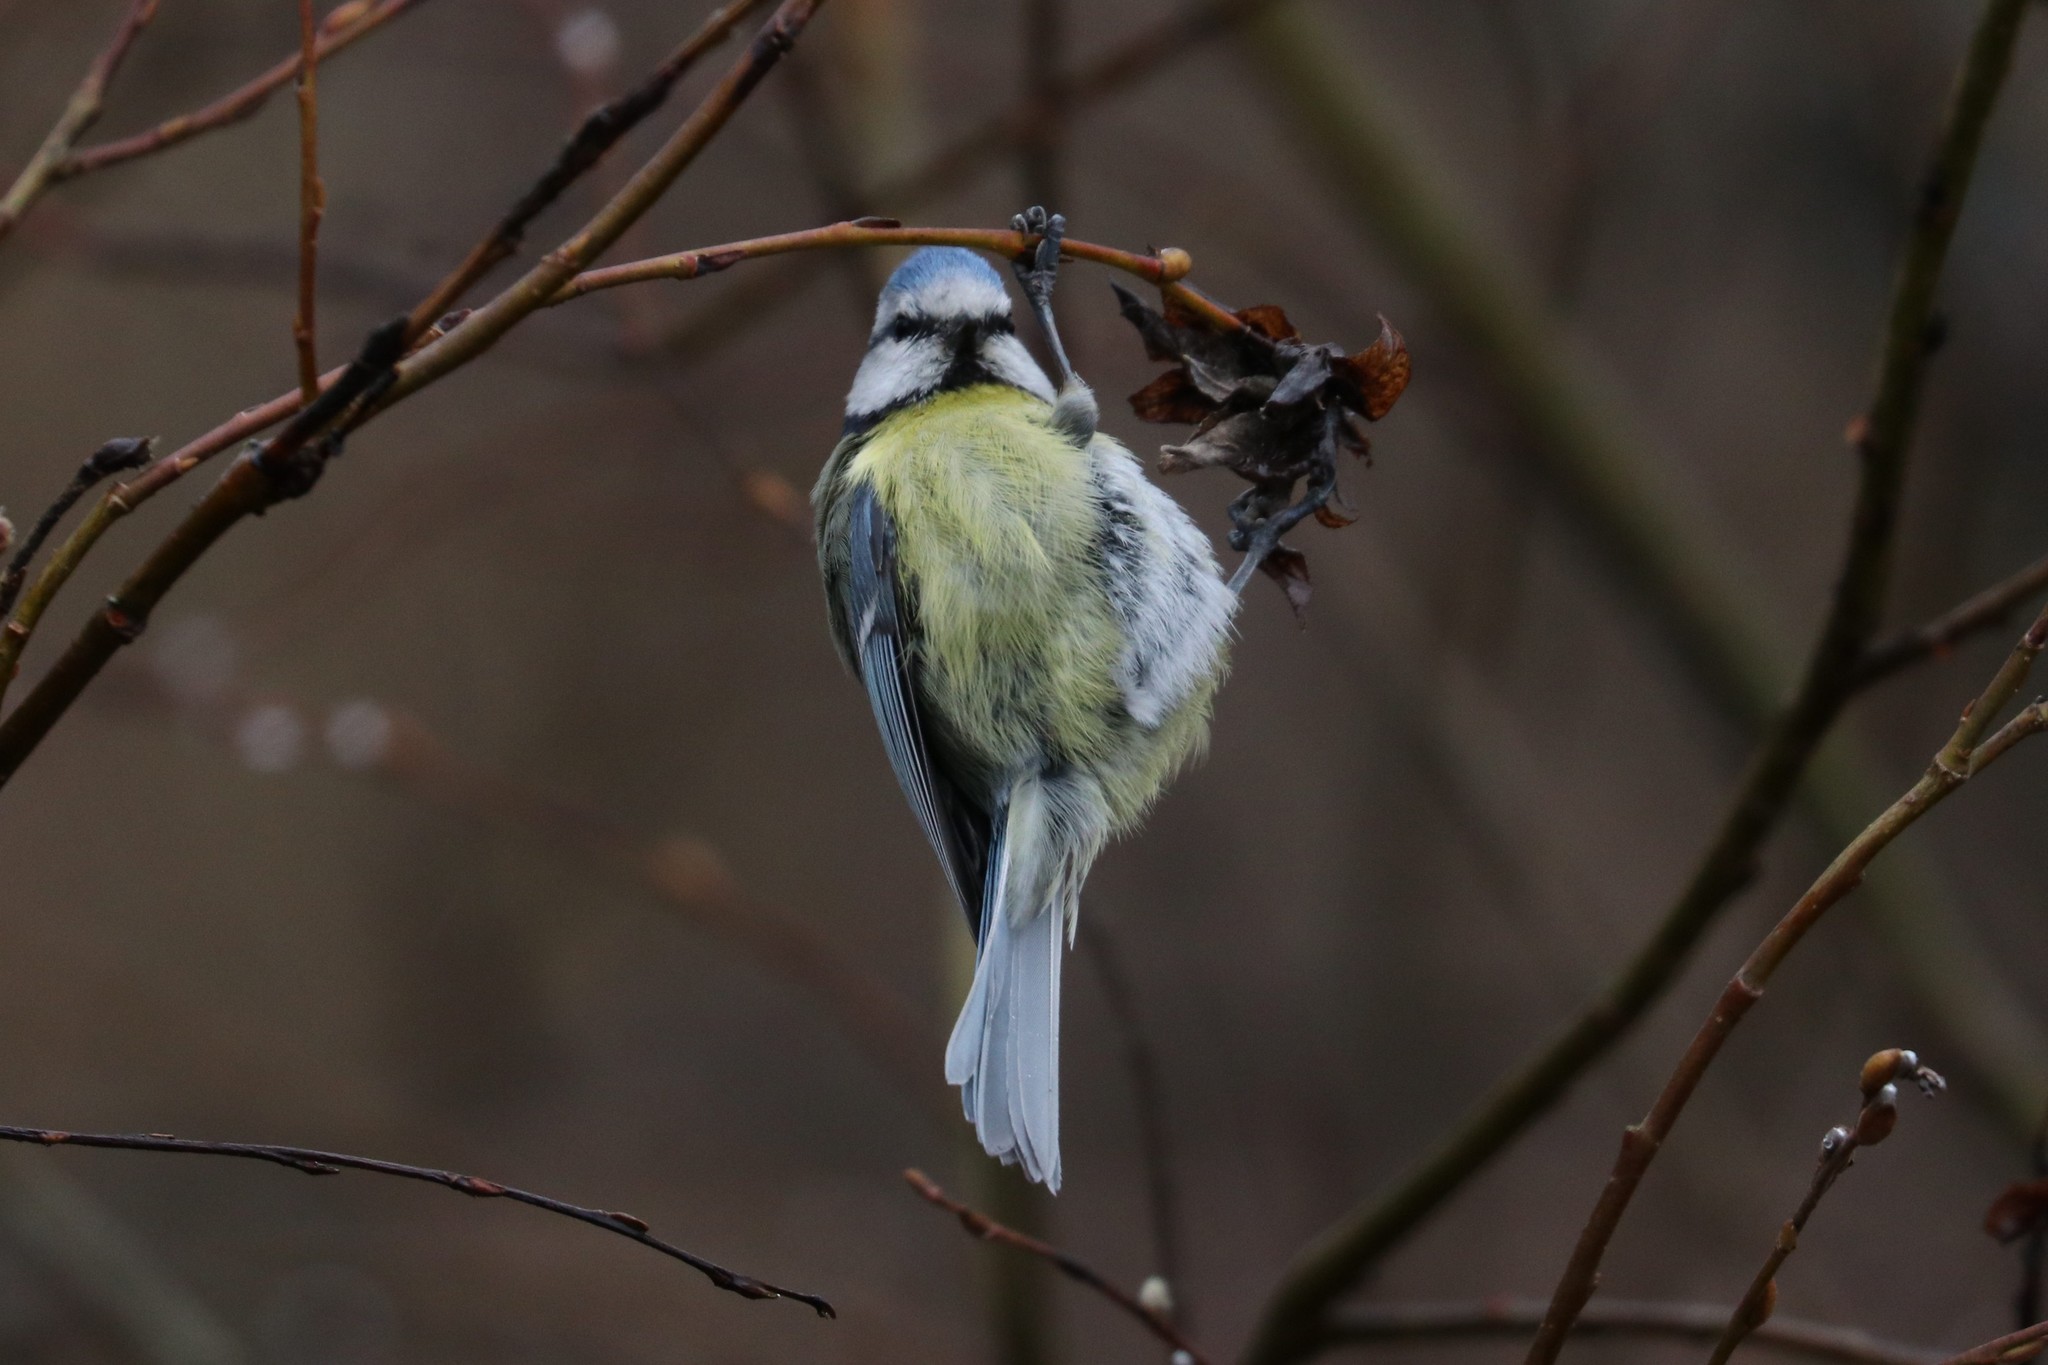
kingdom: Animalia
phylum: Chordata
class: Aves
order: Passeriformes
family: Paridae
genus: Cyanistes
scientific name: Cyanistes caeruleus
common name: Eurasian blue tit
